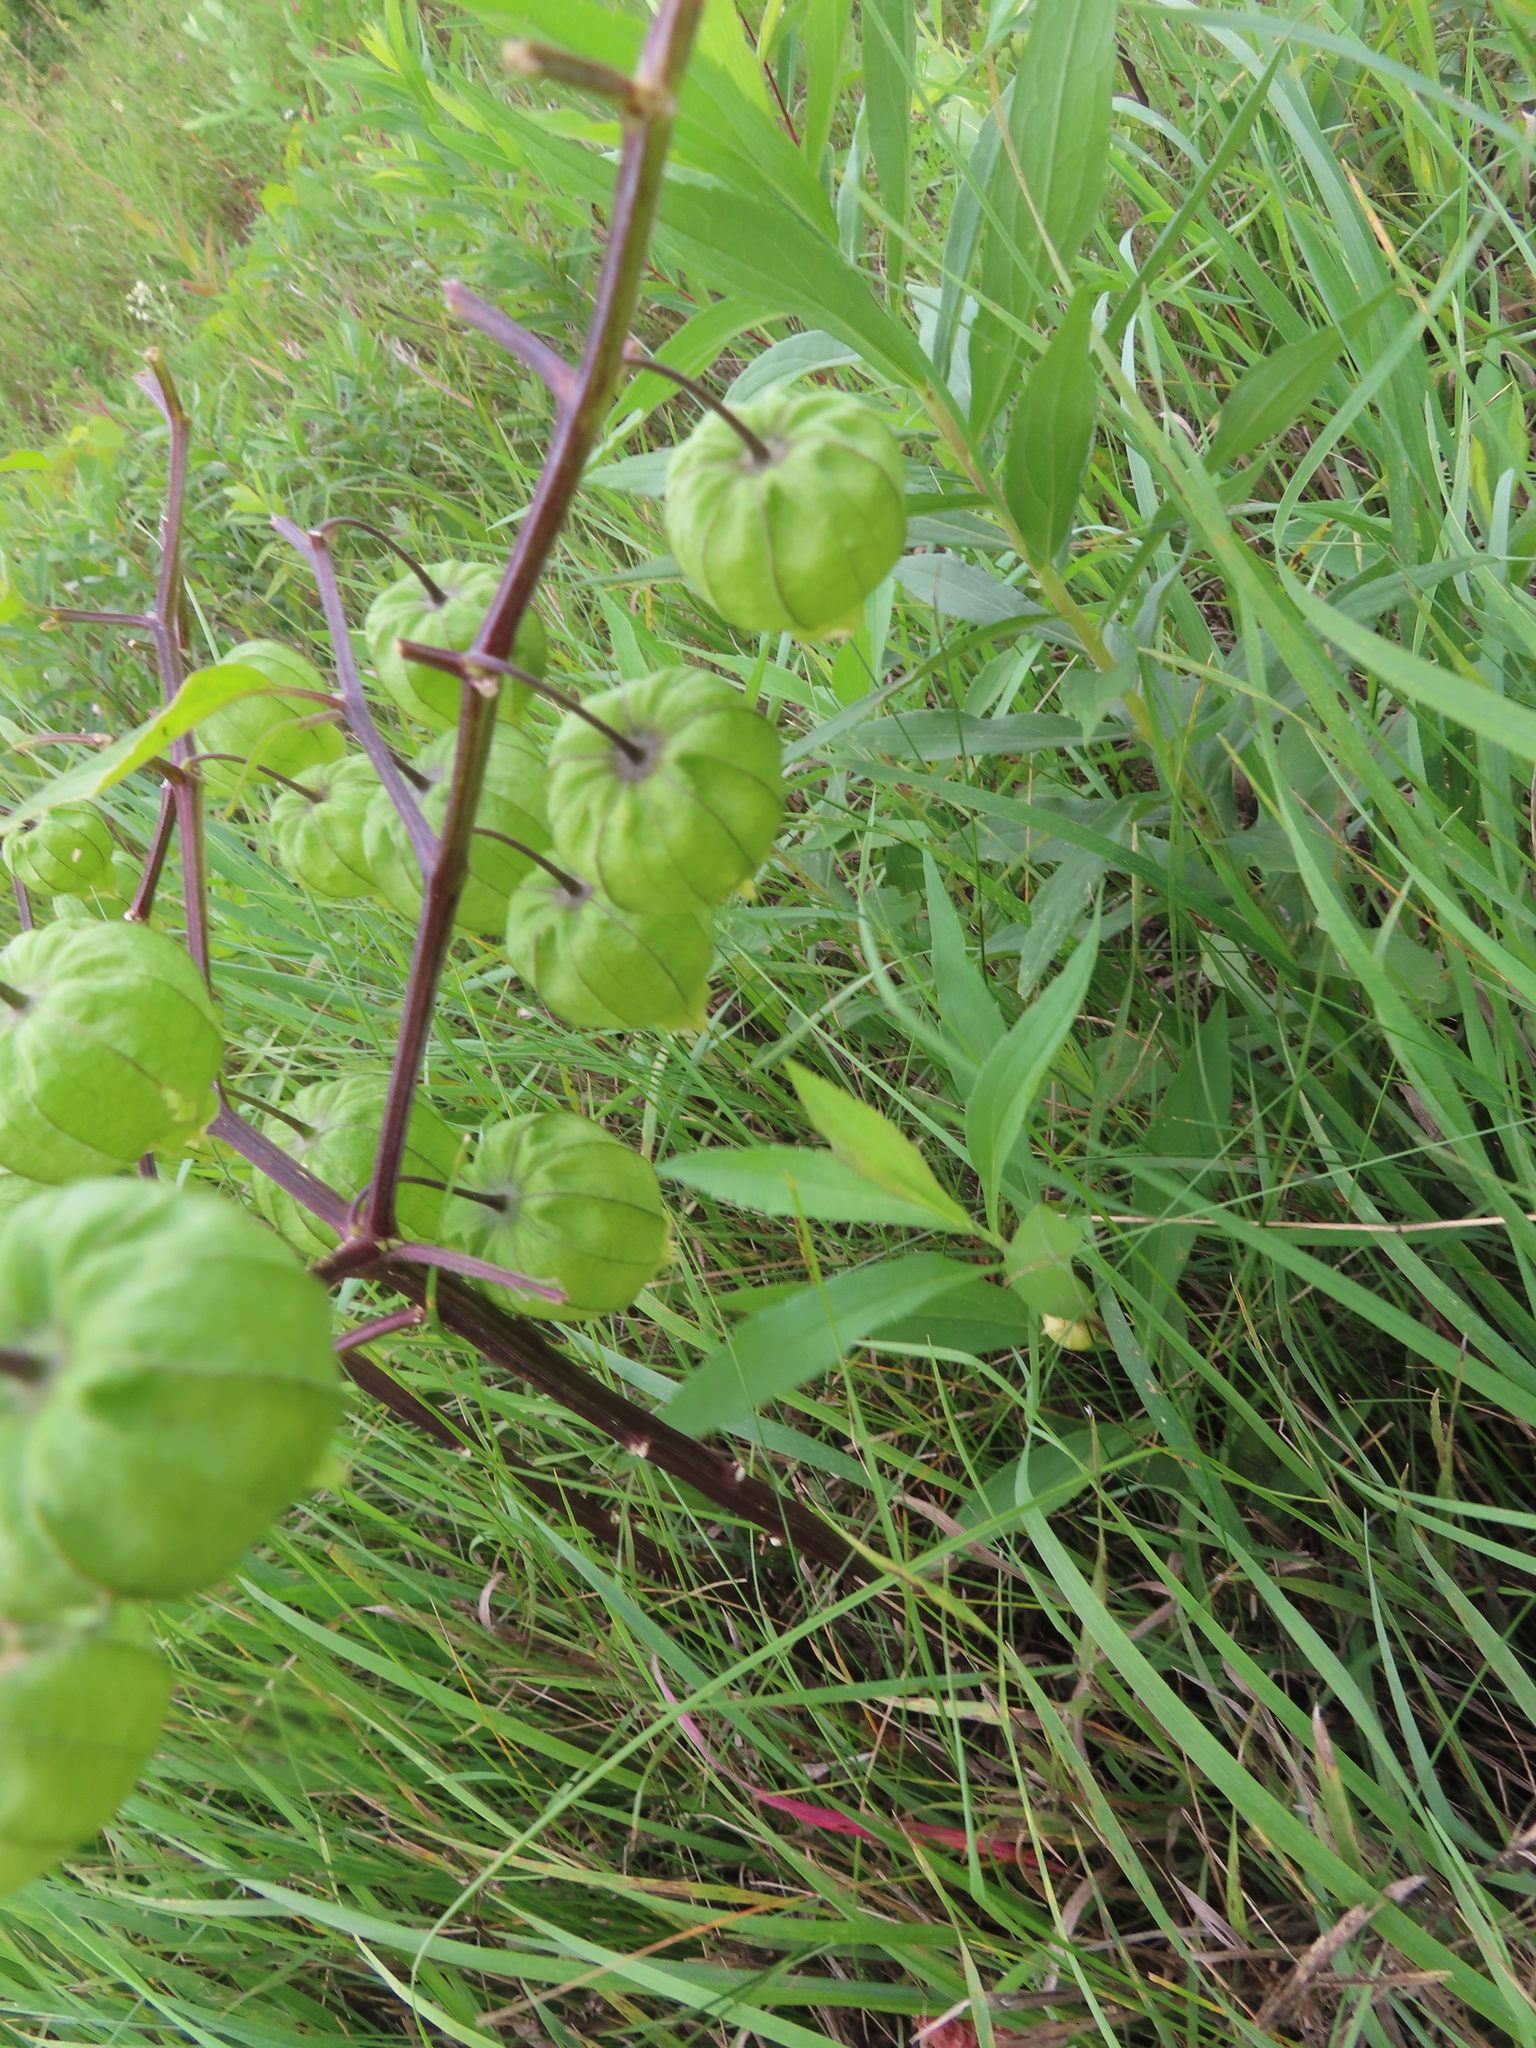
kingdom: Plantae
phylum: Tracheophyta
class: Magnoliopsida
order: Solanales
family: Solanaceae
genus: Physalis
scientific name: Physalis longifolia
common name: Common ground-cherry
